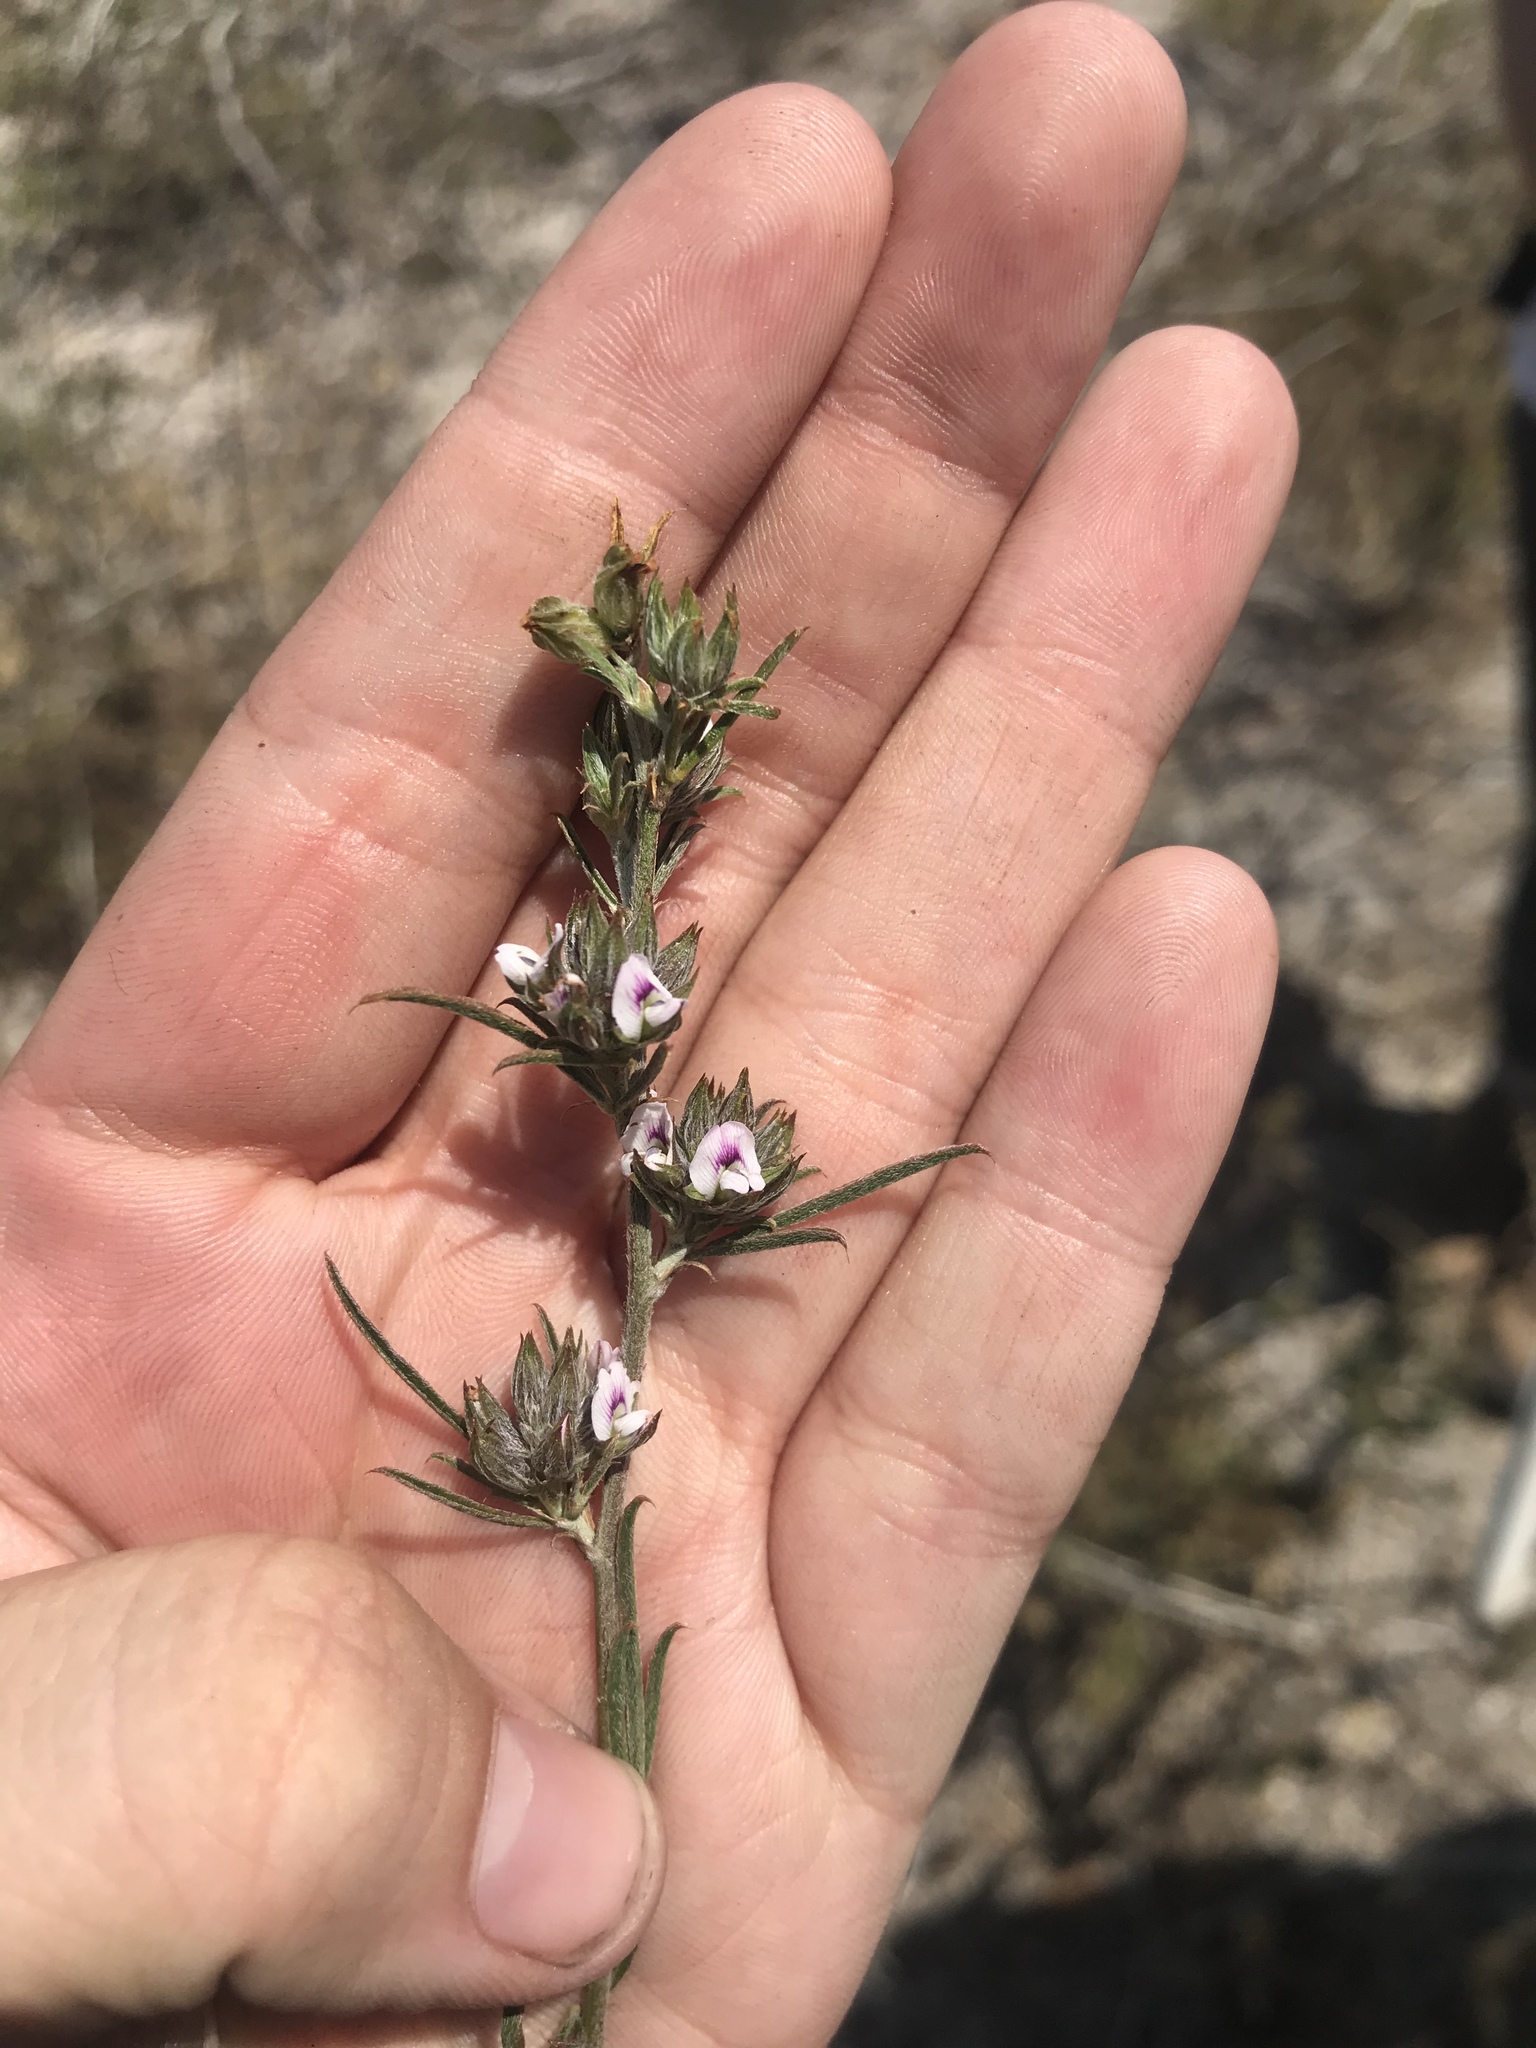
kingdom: Plantae
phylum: Tracheophyta
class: Magnoliopsida
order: Fabales
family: Fabaceae
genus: Psoralea
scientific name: Psoralea uncinata
